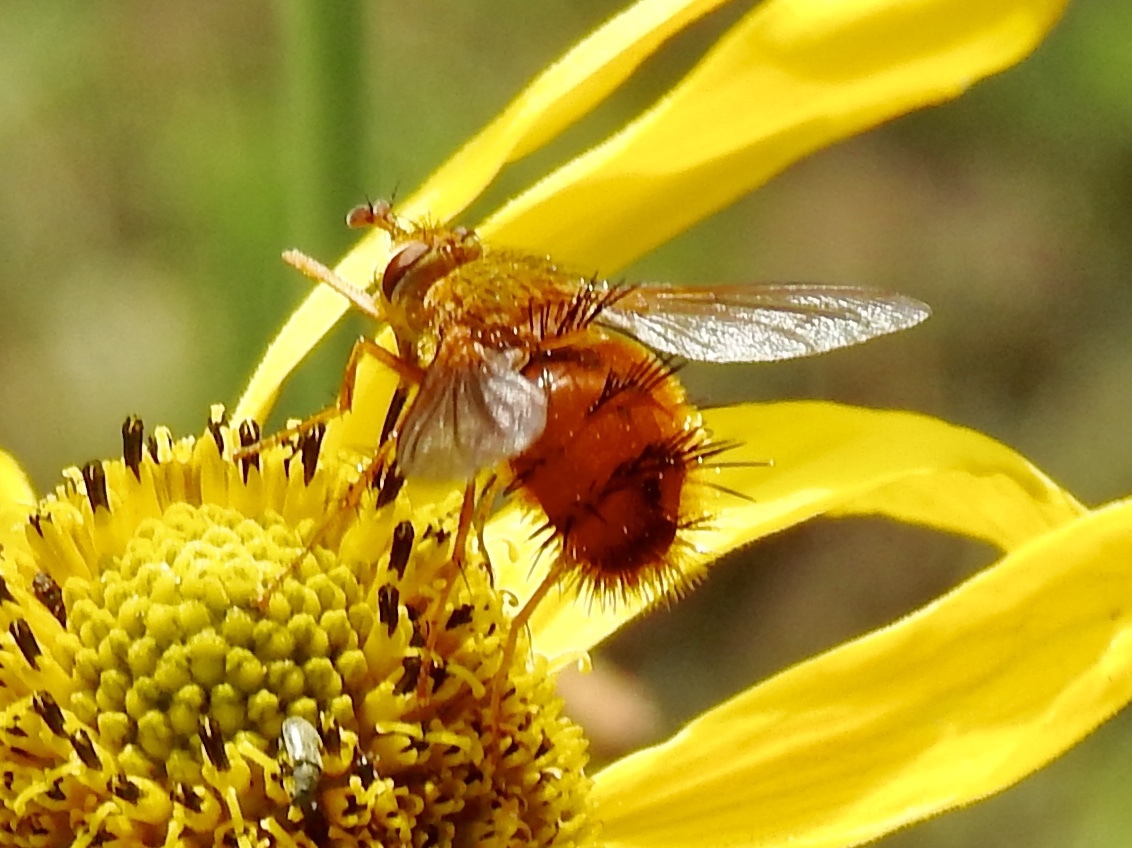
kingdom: Animalia
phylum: Arthropoda
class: Insecta
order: Diptera
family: Tachinidae
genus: Adejeania
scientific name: Adejeania vexatrix
